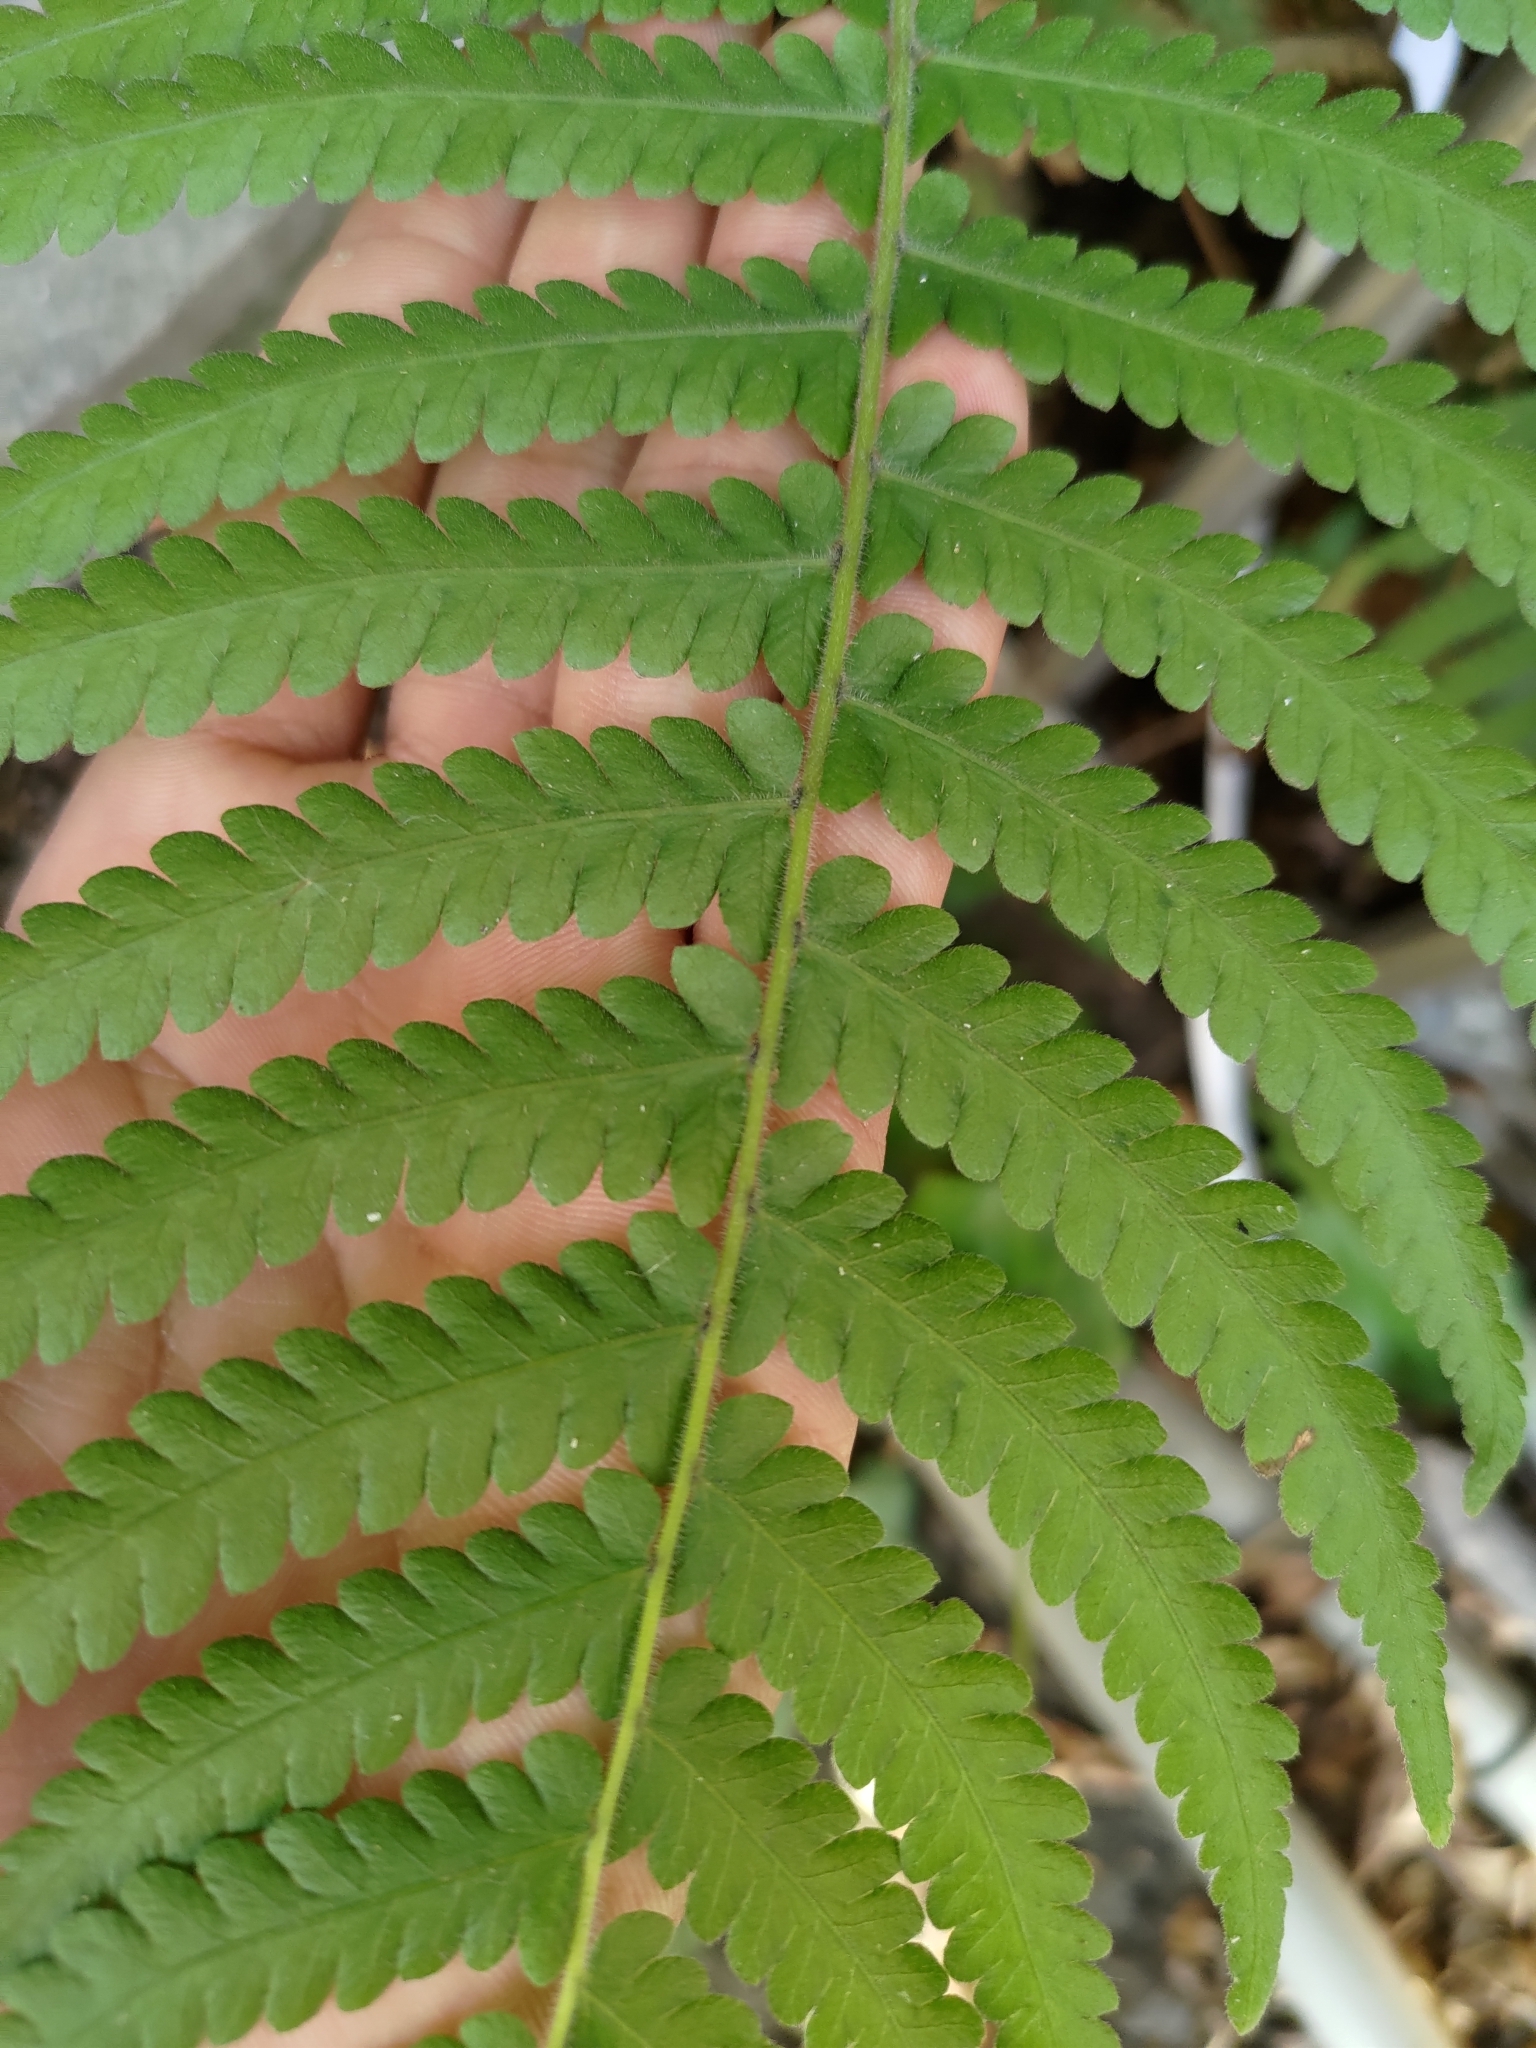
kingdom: Plantae
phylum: Tracheophyta
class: Polypodiopsida
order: Polypodiales
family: Thelypteridaceae
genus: Christella
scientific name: Christella parasitica
